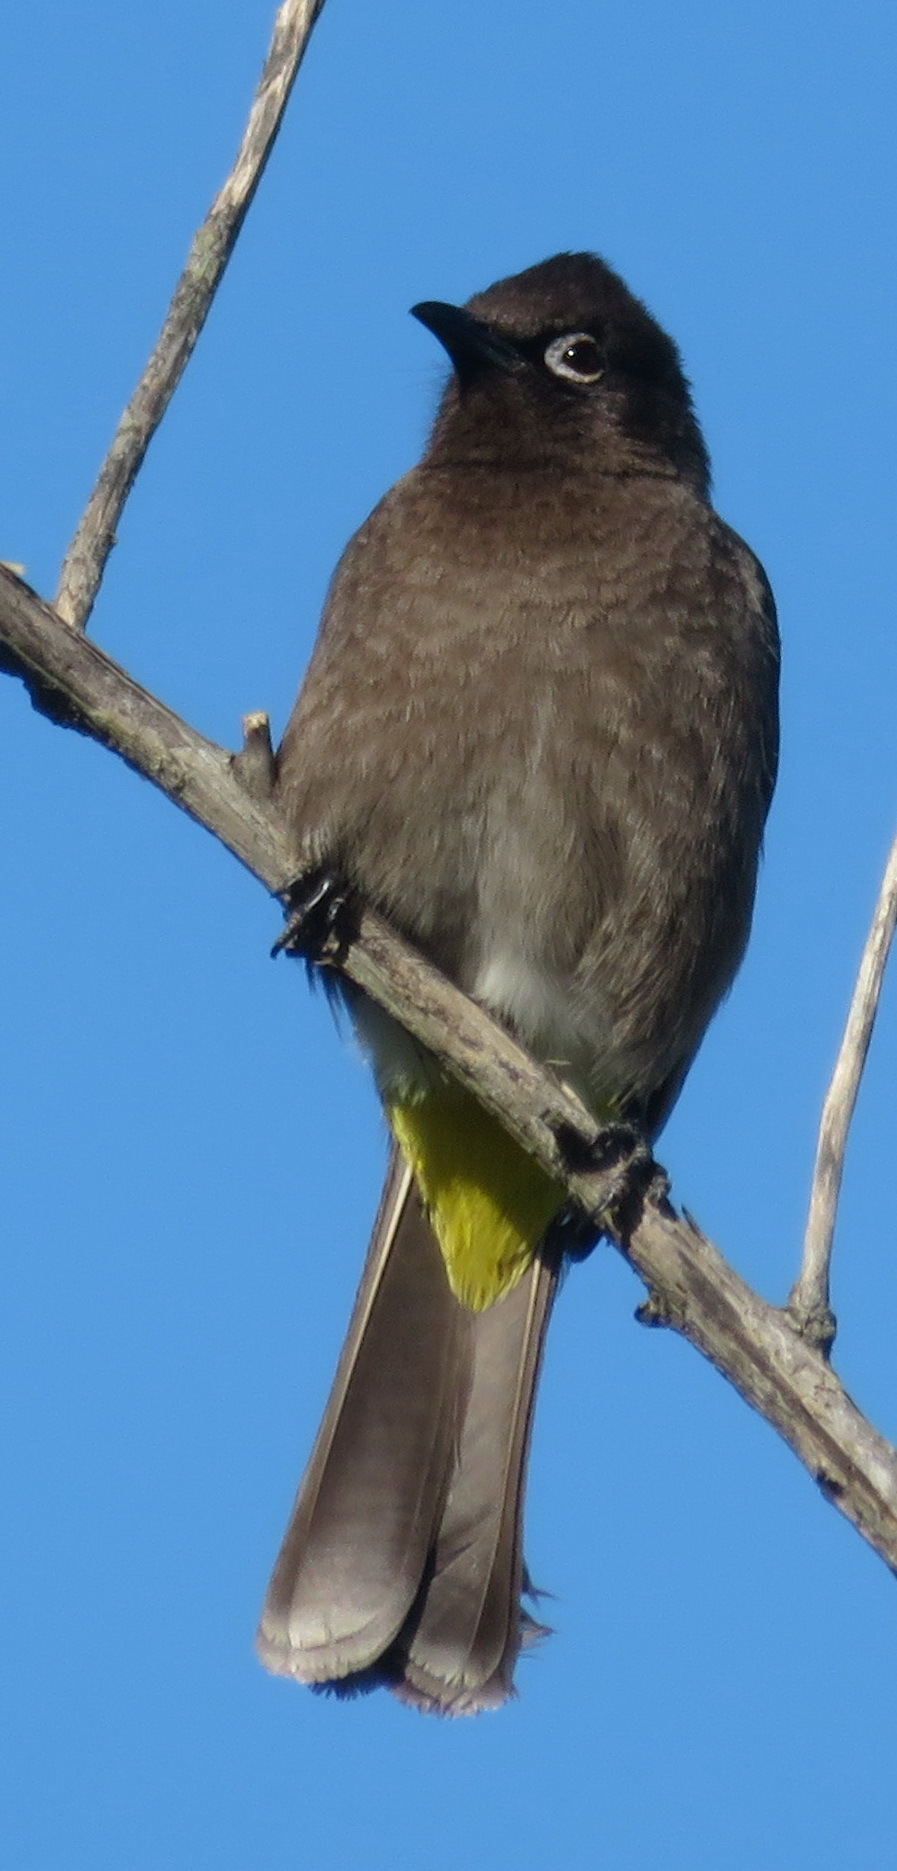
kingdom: Animalia
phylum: Chordata
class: Aves
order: Passeriformes
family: Pycnonotidae
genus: Pycnonotus
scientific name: Pycnonotus capensis
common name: Cape bulbul
